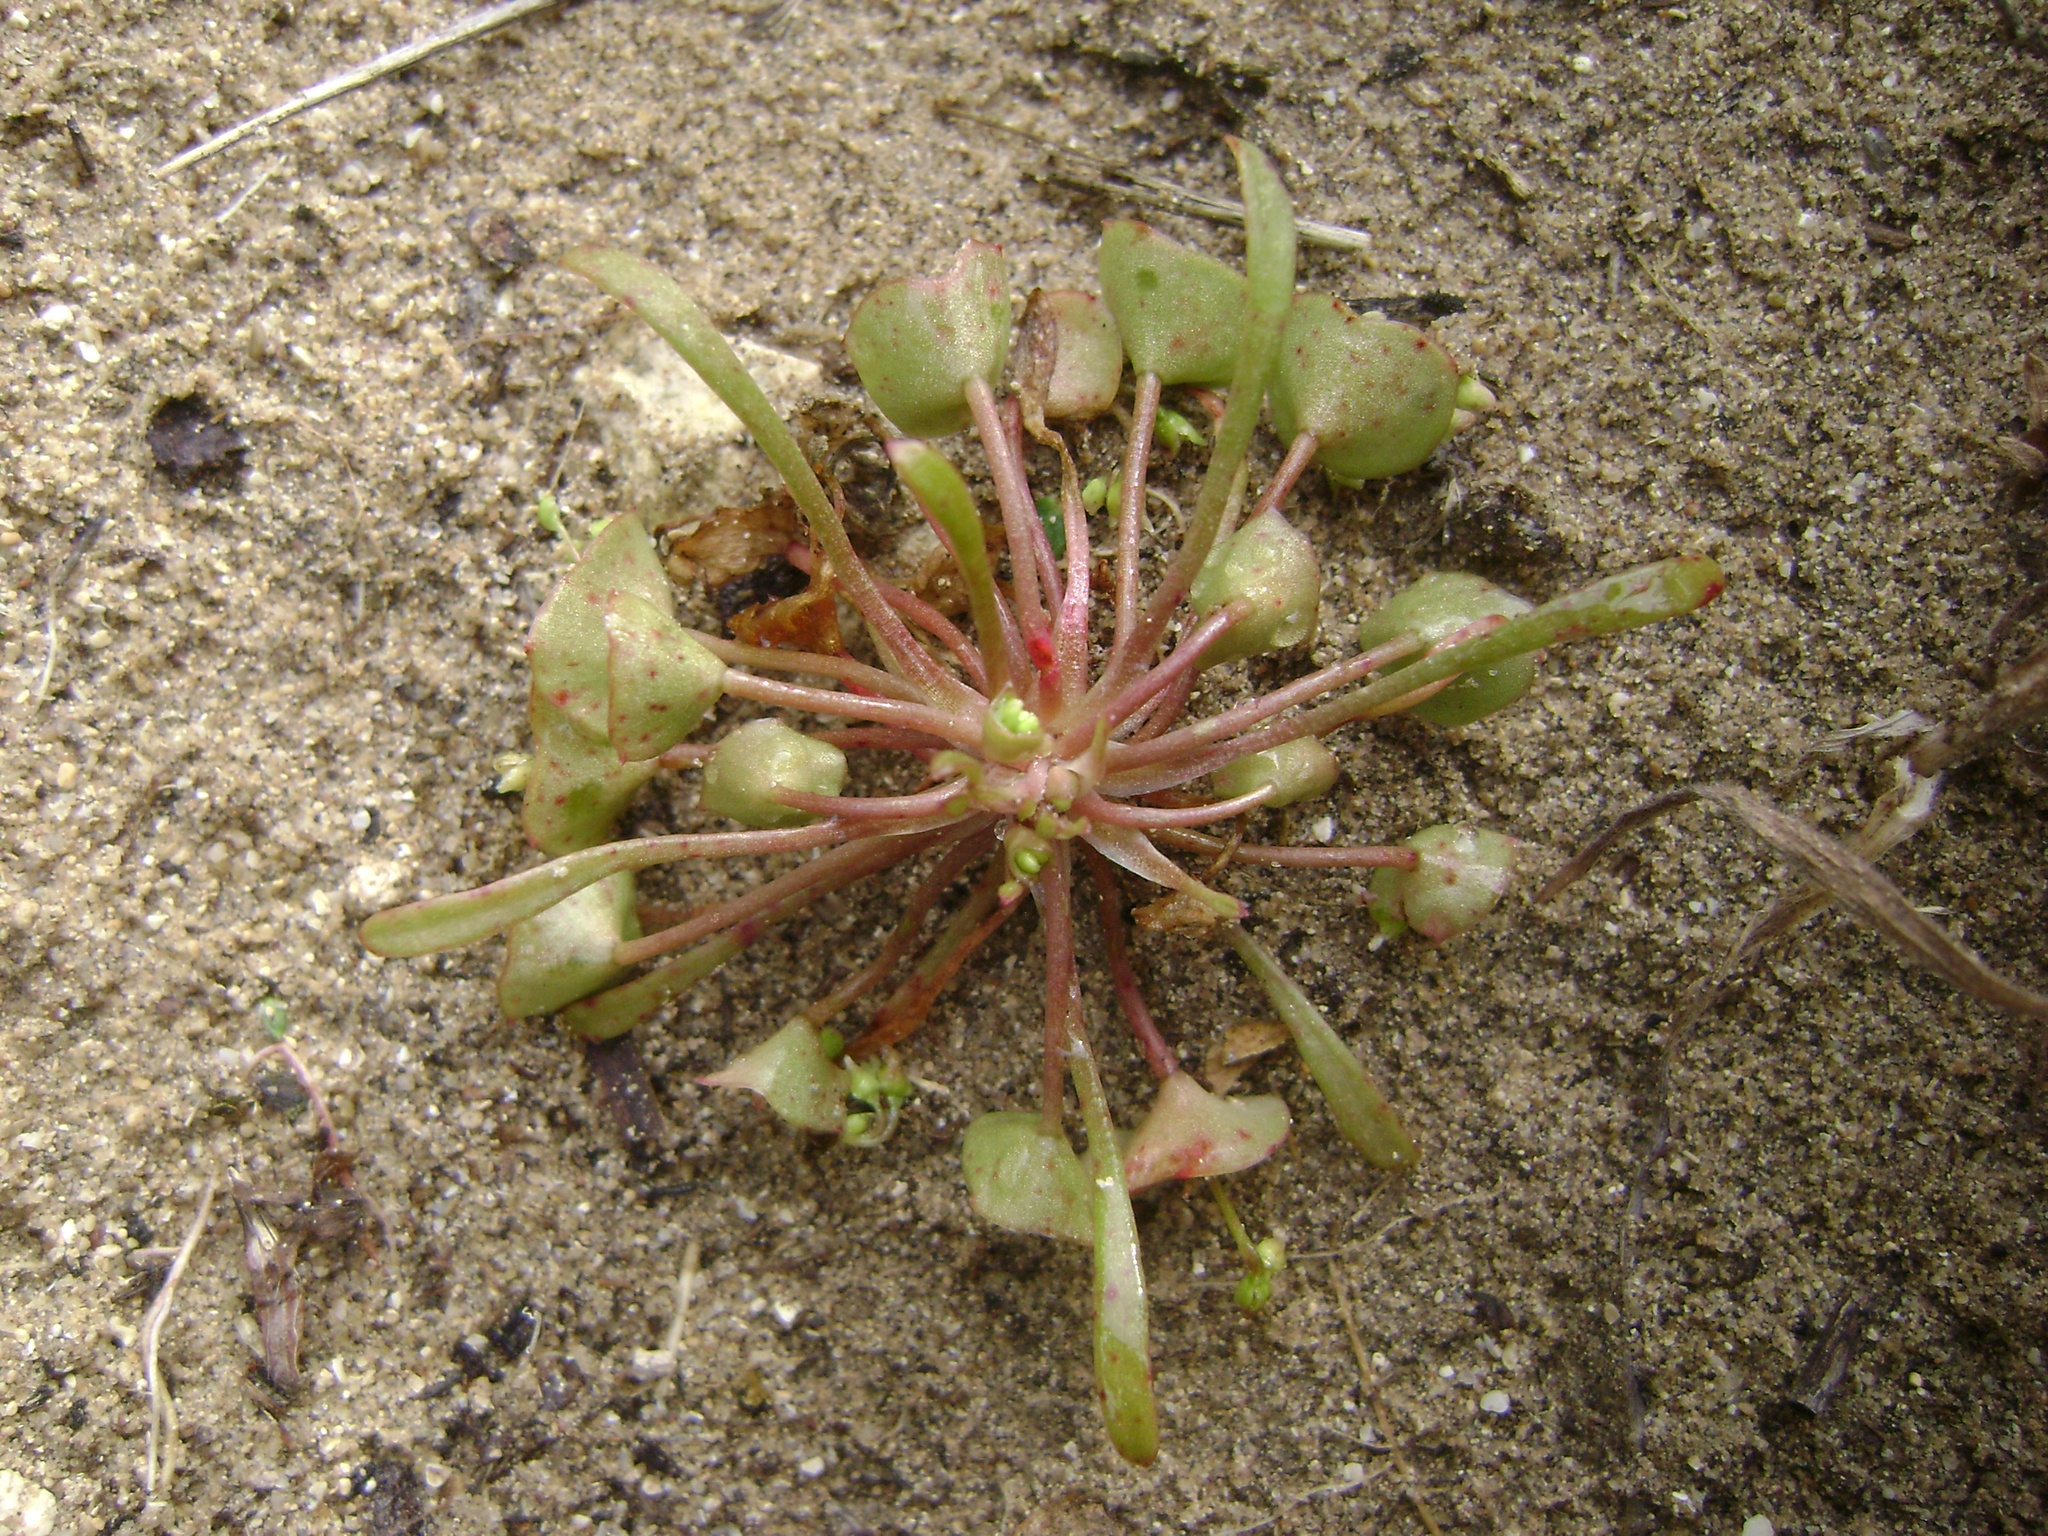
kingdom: Plantae
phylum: Tracheophyta
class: Magnoliopsida
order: Caryophyllales
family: Montiaceae
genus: Claytonia
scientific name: Claytonia parviflora
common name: Indian-lettuce
